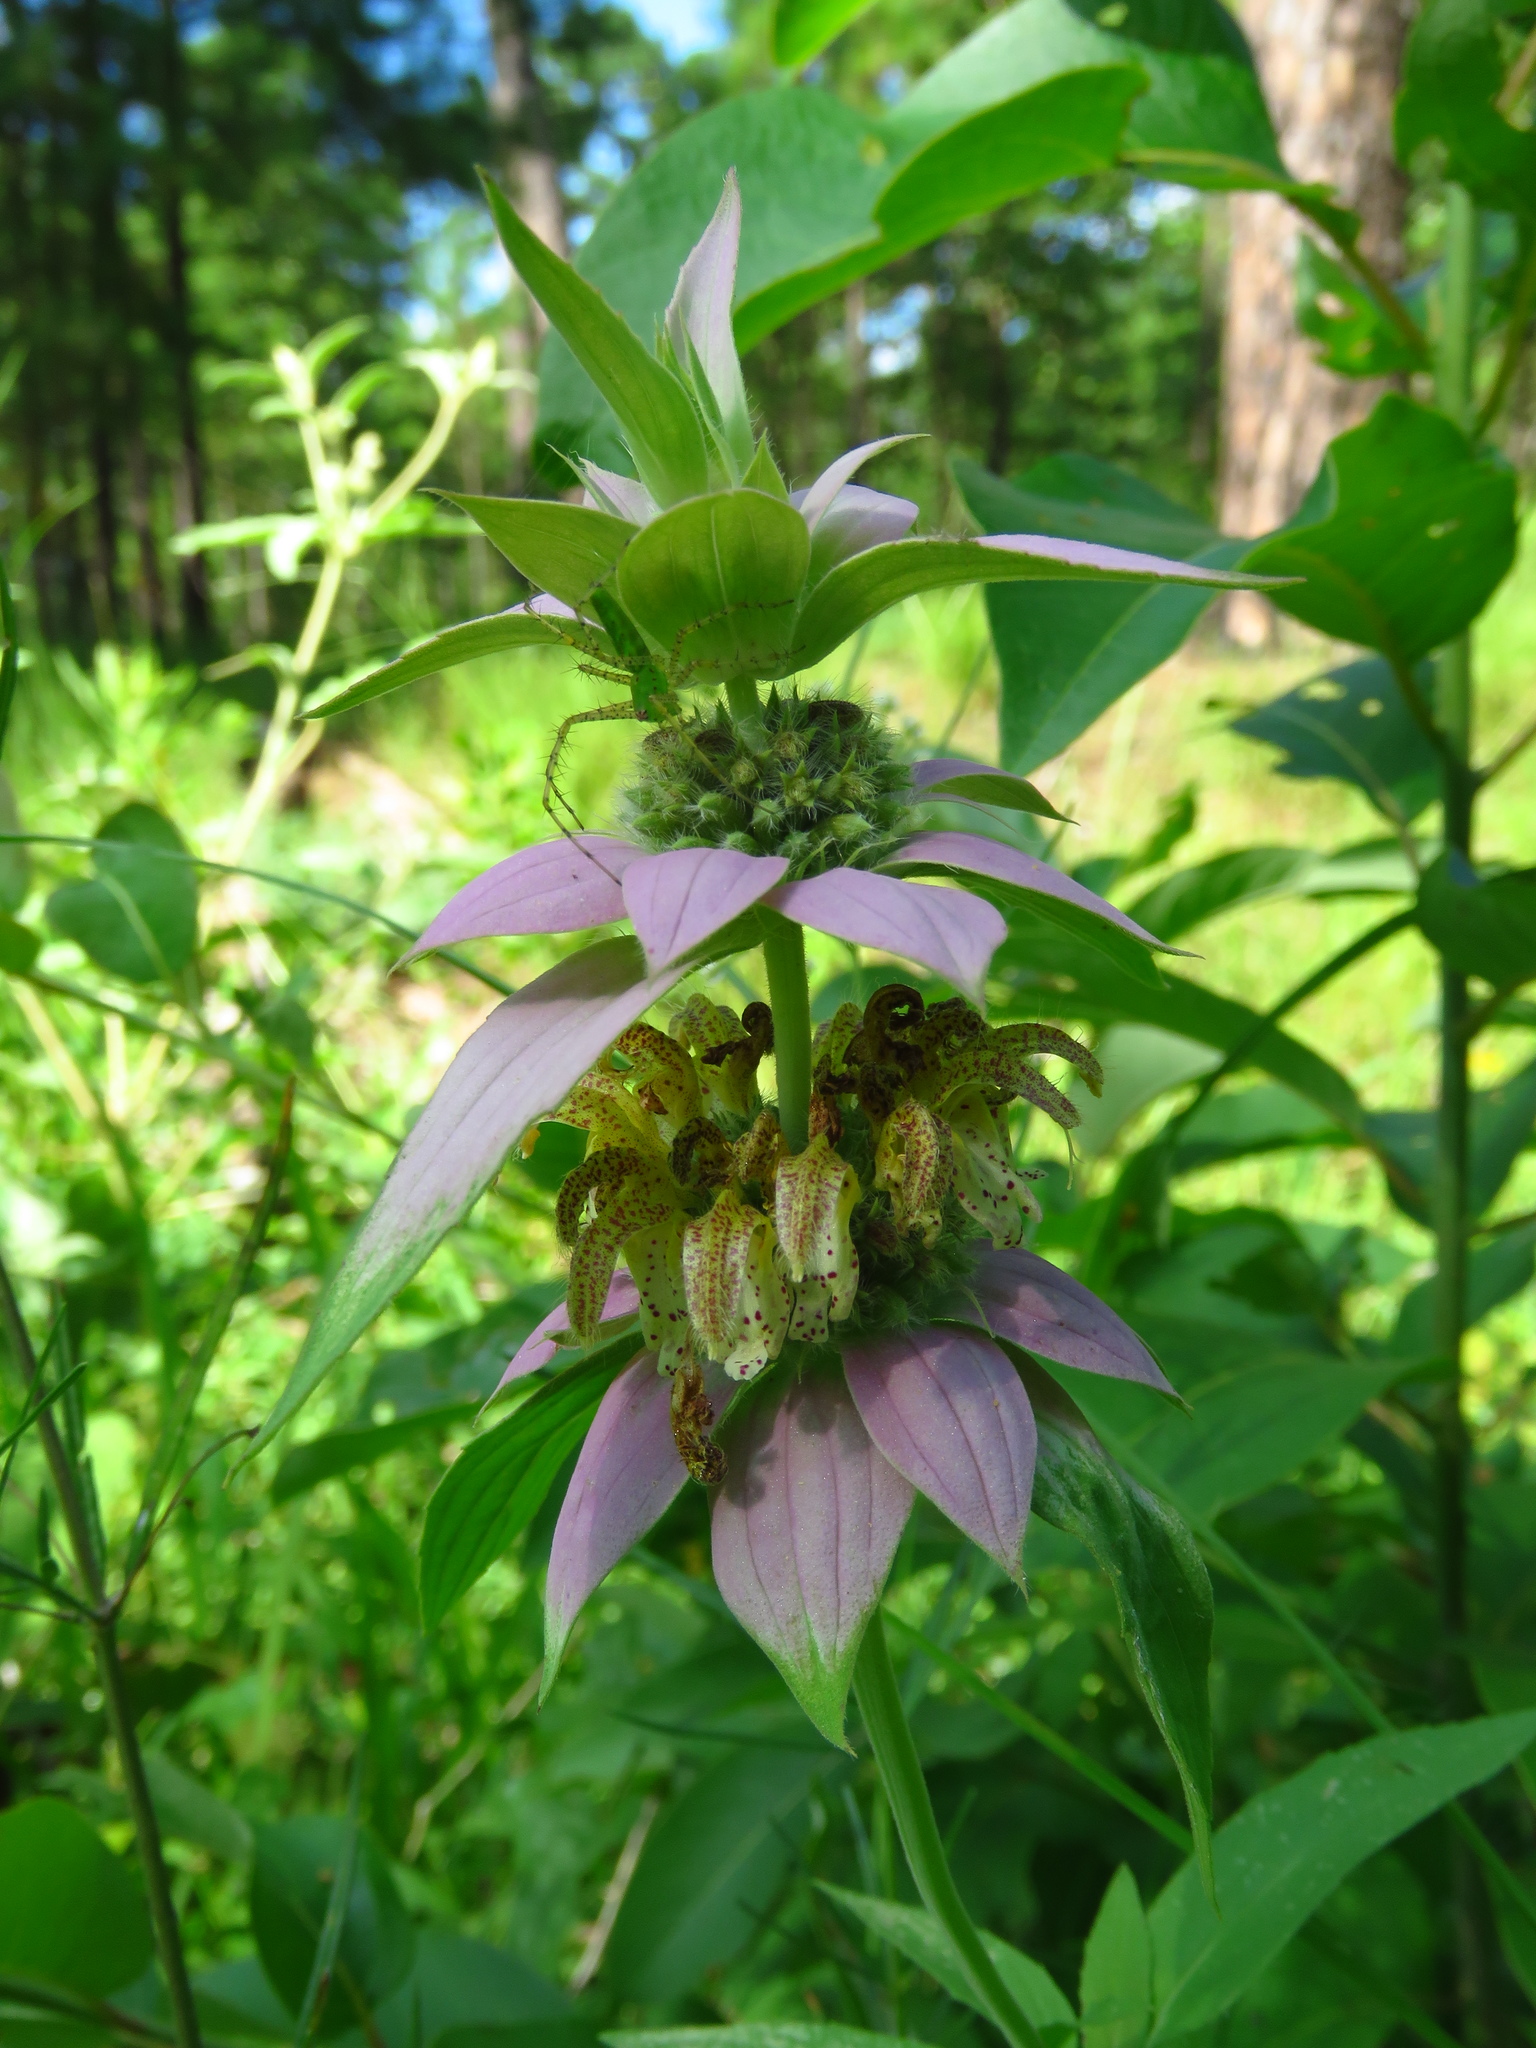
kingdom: Plantae
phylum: Tracheophyta
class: Magnoliopsida
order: Lamiales
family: Lamiaceae
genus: Monarda
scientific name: Monarda punctata
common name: Dotted monarda
